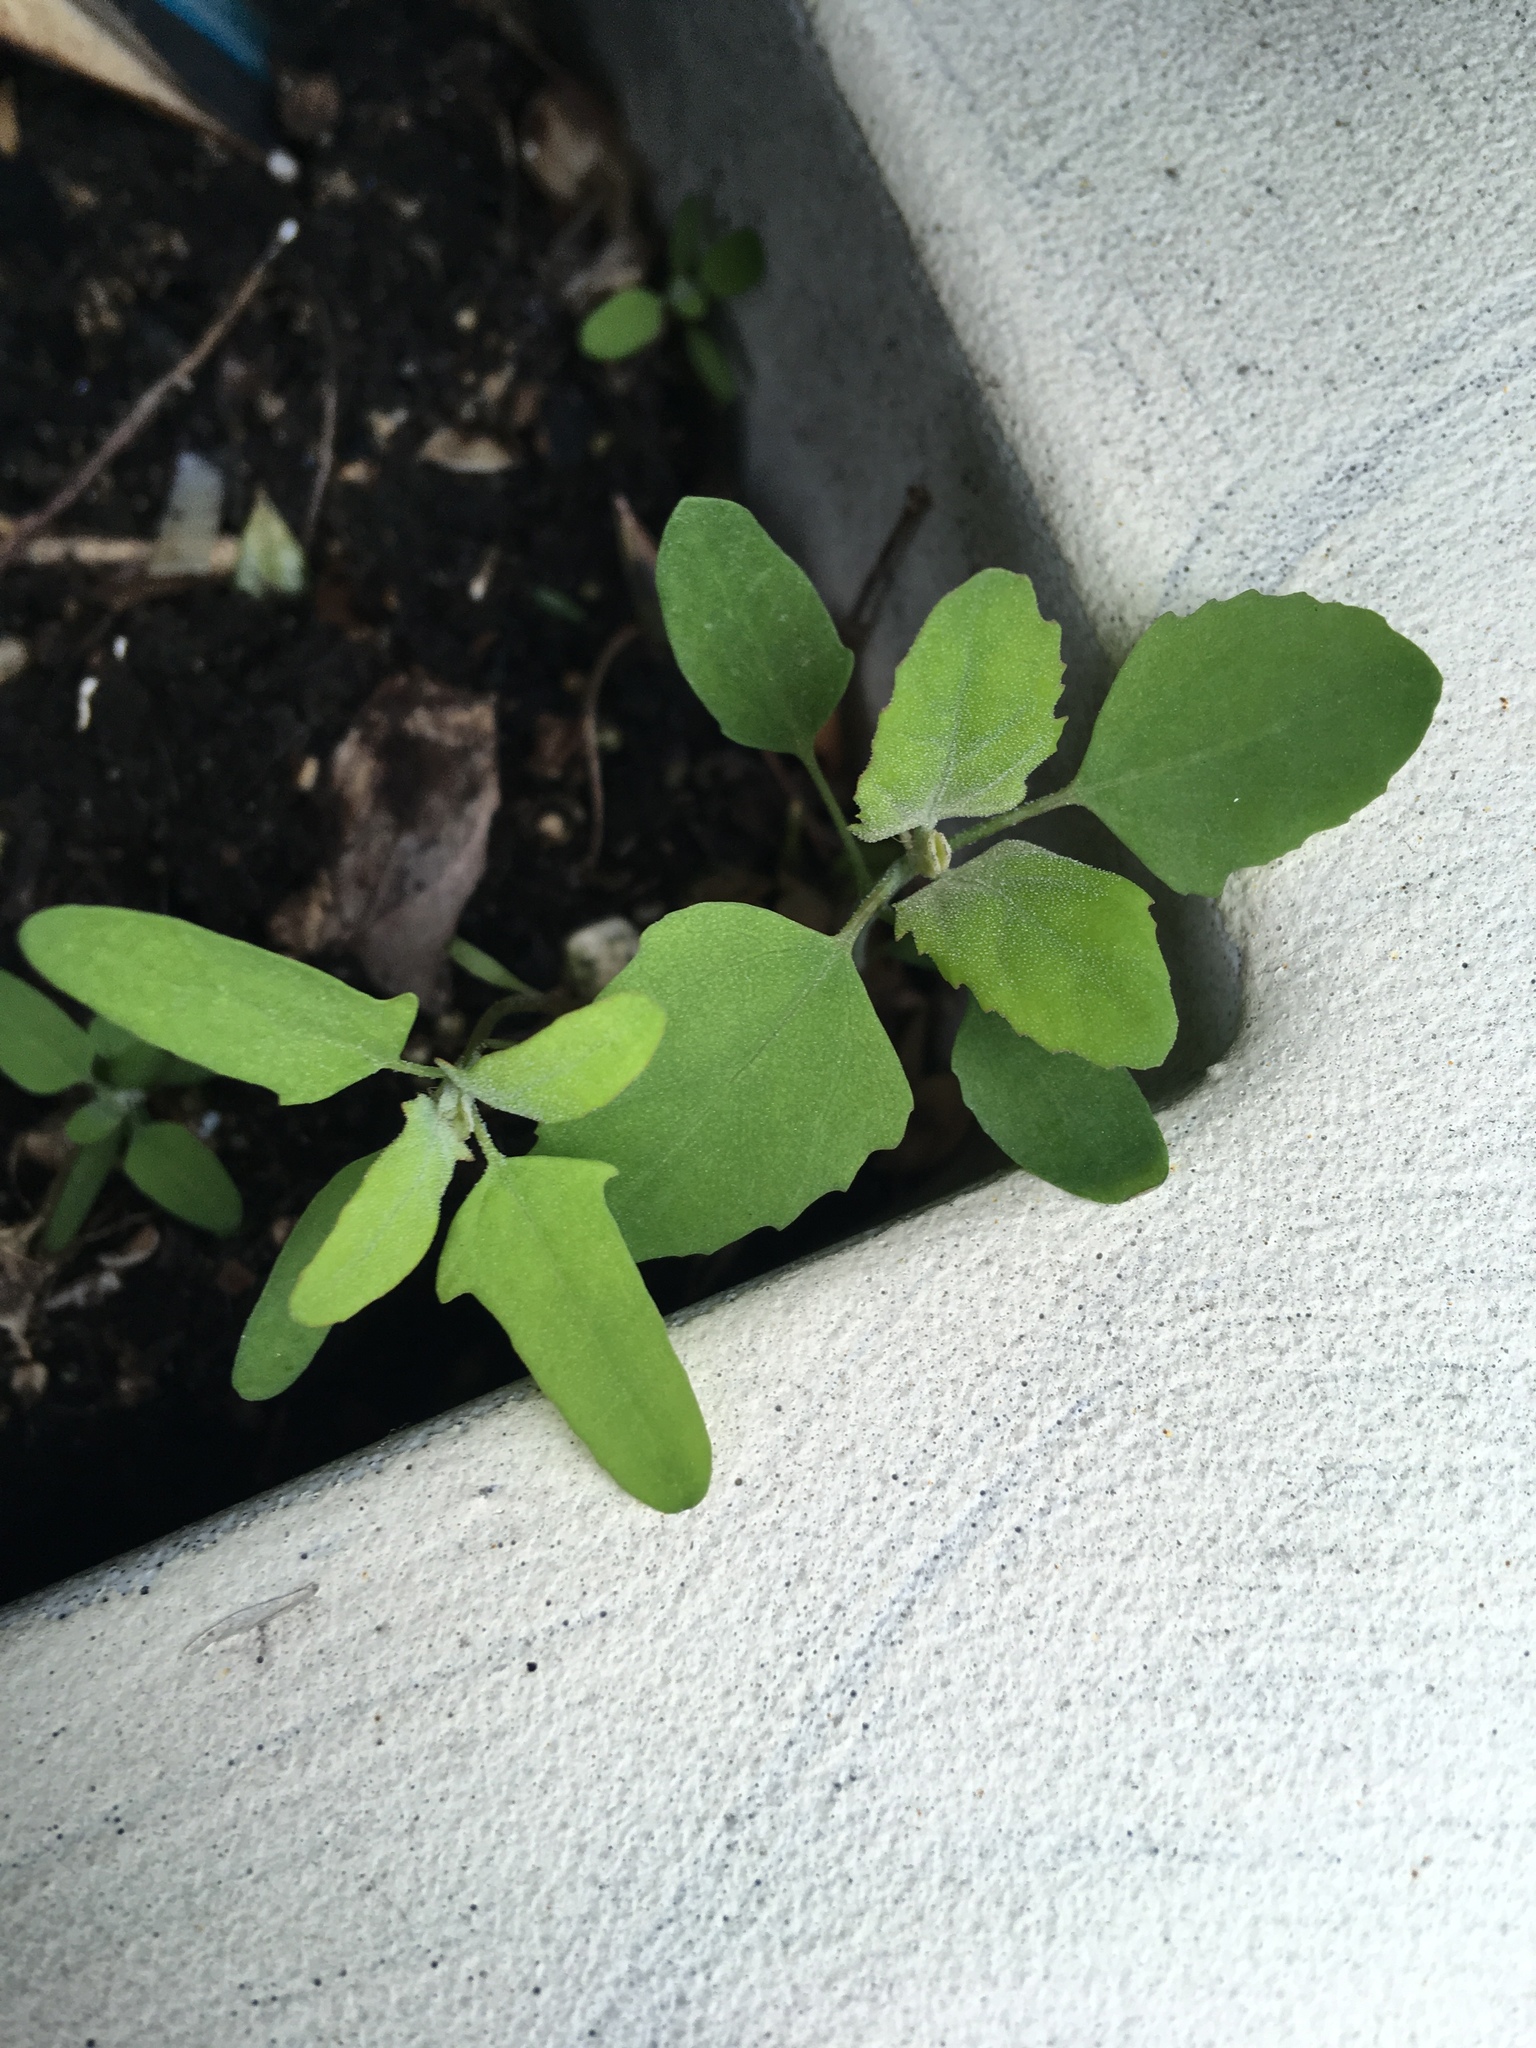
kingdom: Plantae
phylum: Tracheophyta
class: Magnoliopsida
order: Caryophyllales
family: Amaranthaceae
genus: Chenopodium
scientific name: Chenopodium album
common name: Fat-hen
